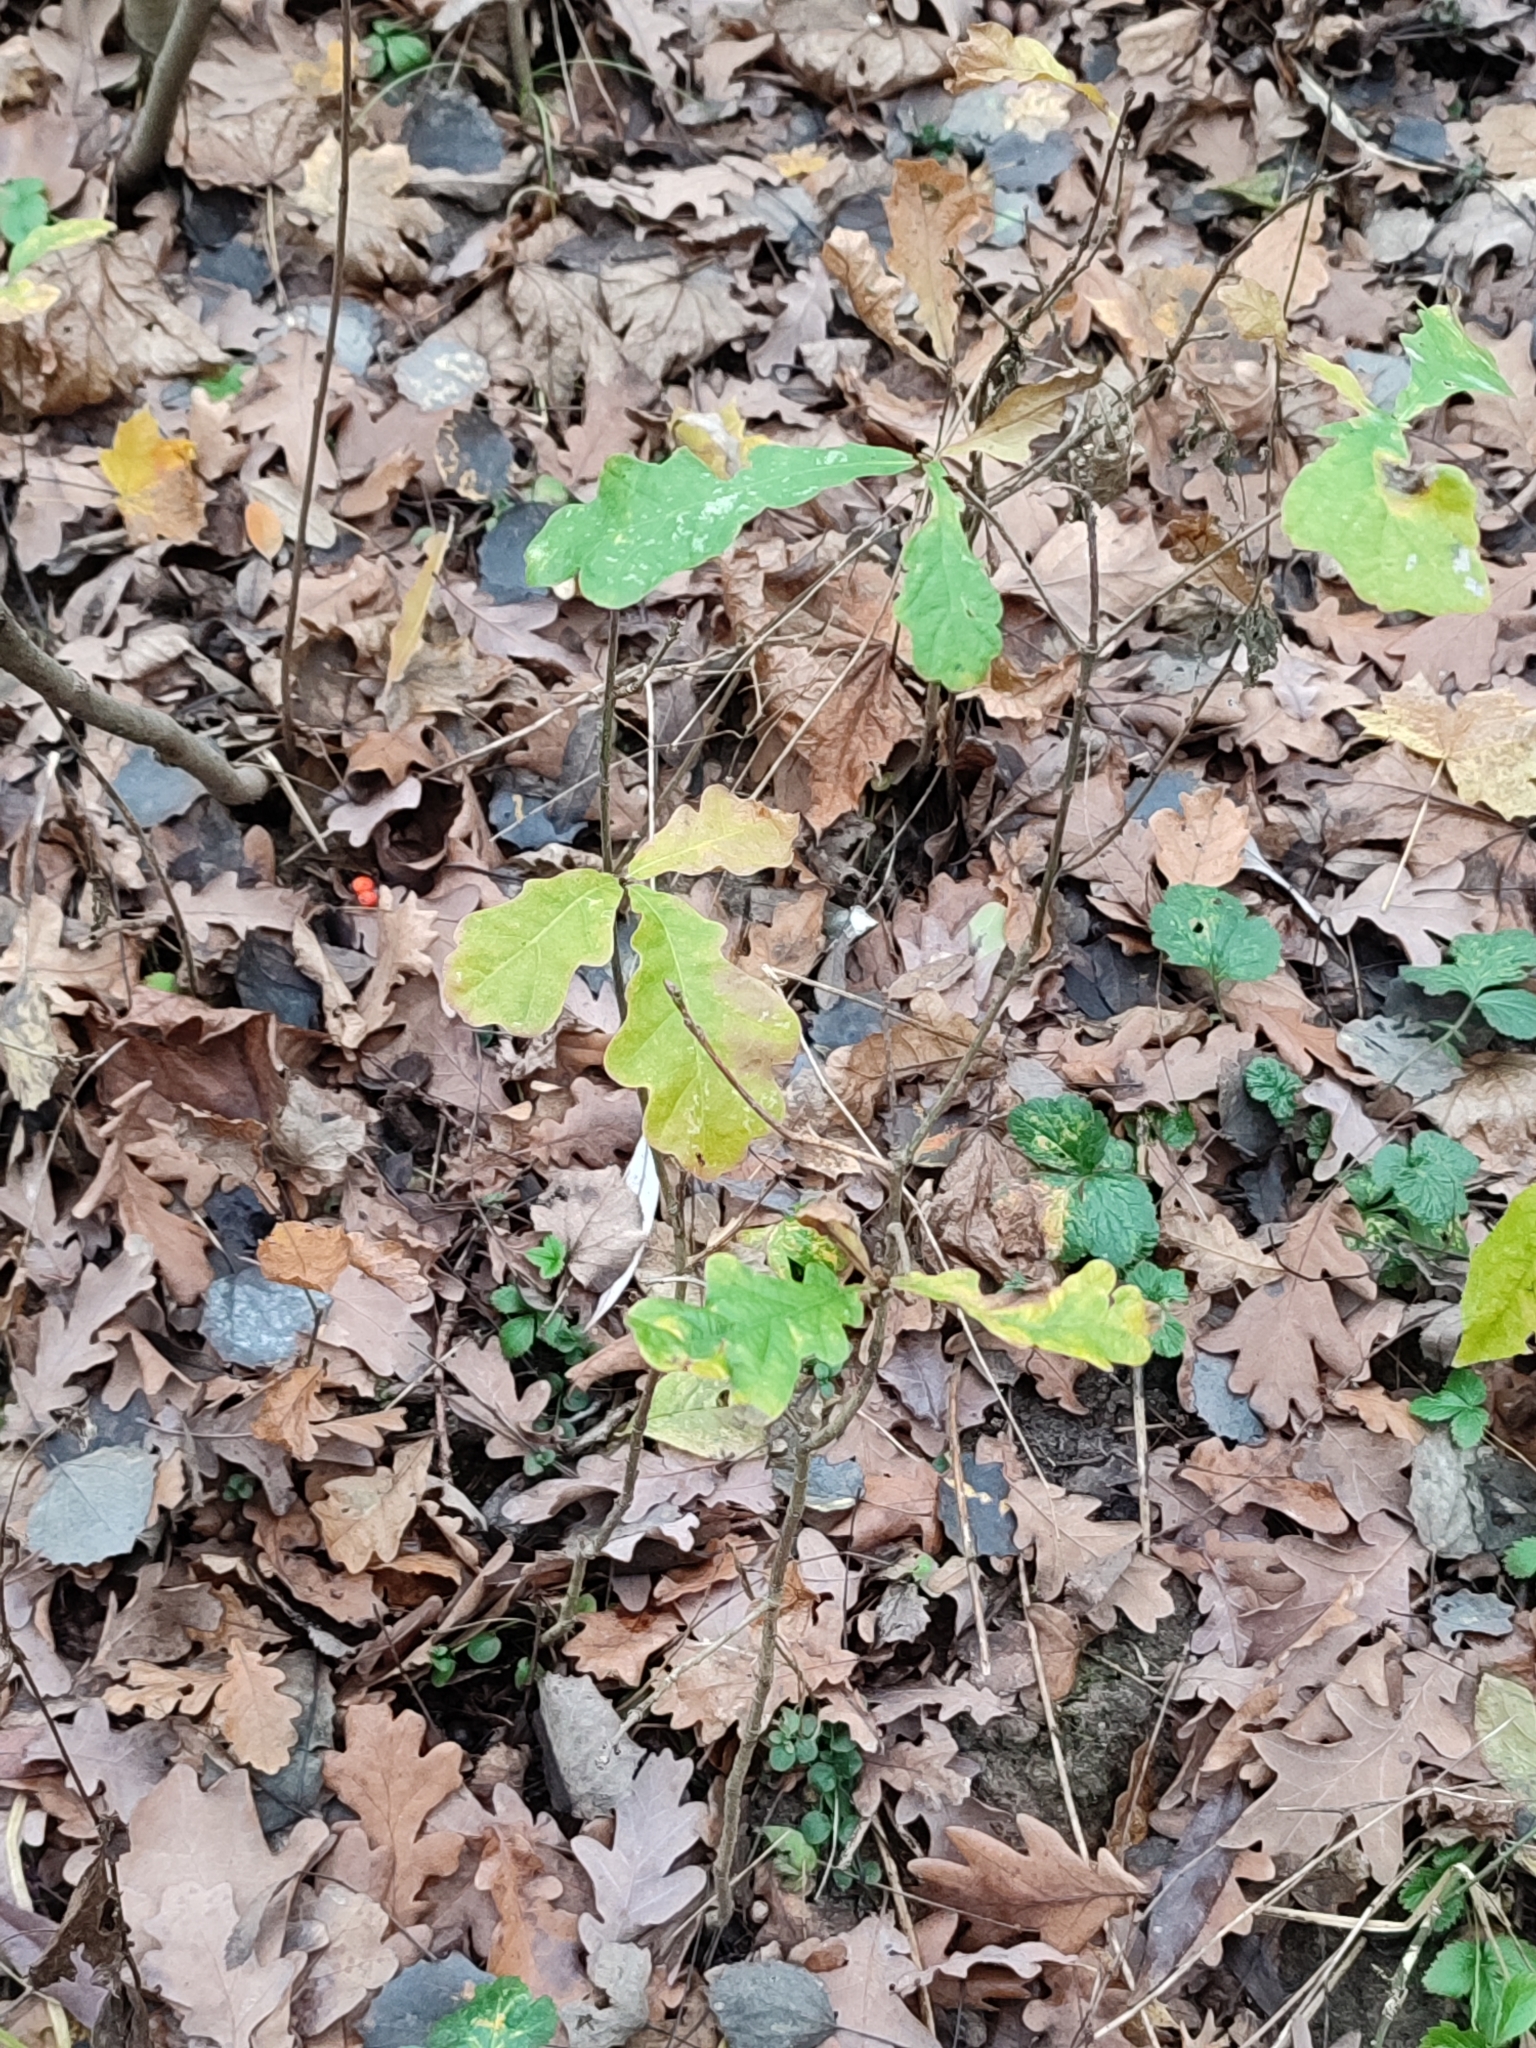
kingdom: Plantae
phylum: Tracheophyta
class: Magnoliopsida
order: Fagales
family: Fagaceae
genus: Quercus
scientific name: Quercus robur
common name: Pedunculate oak
